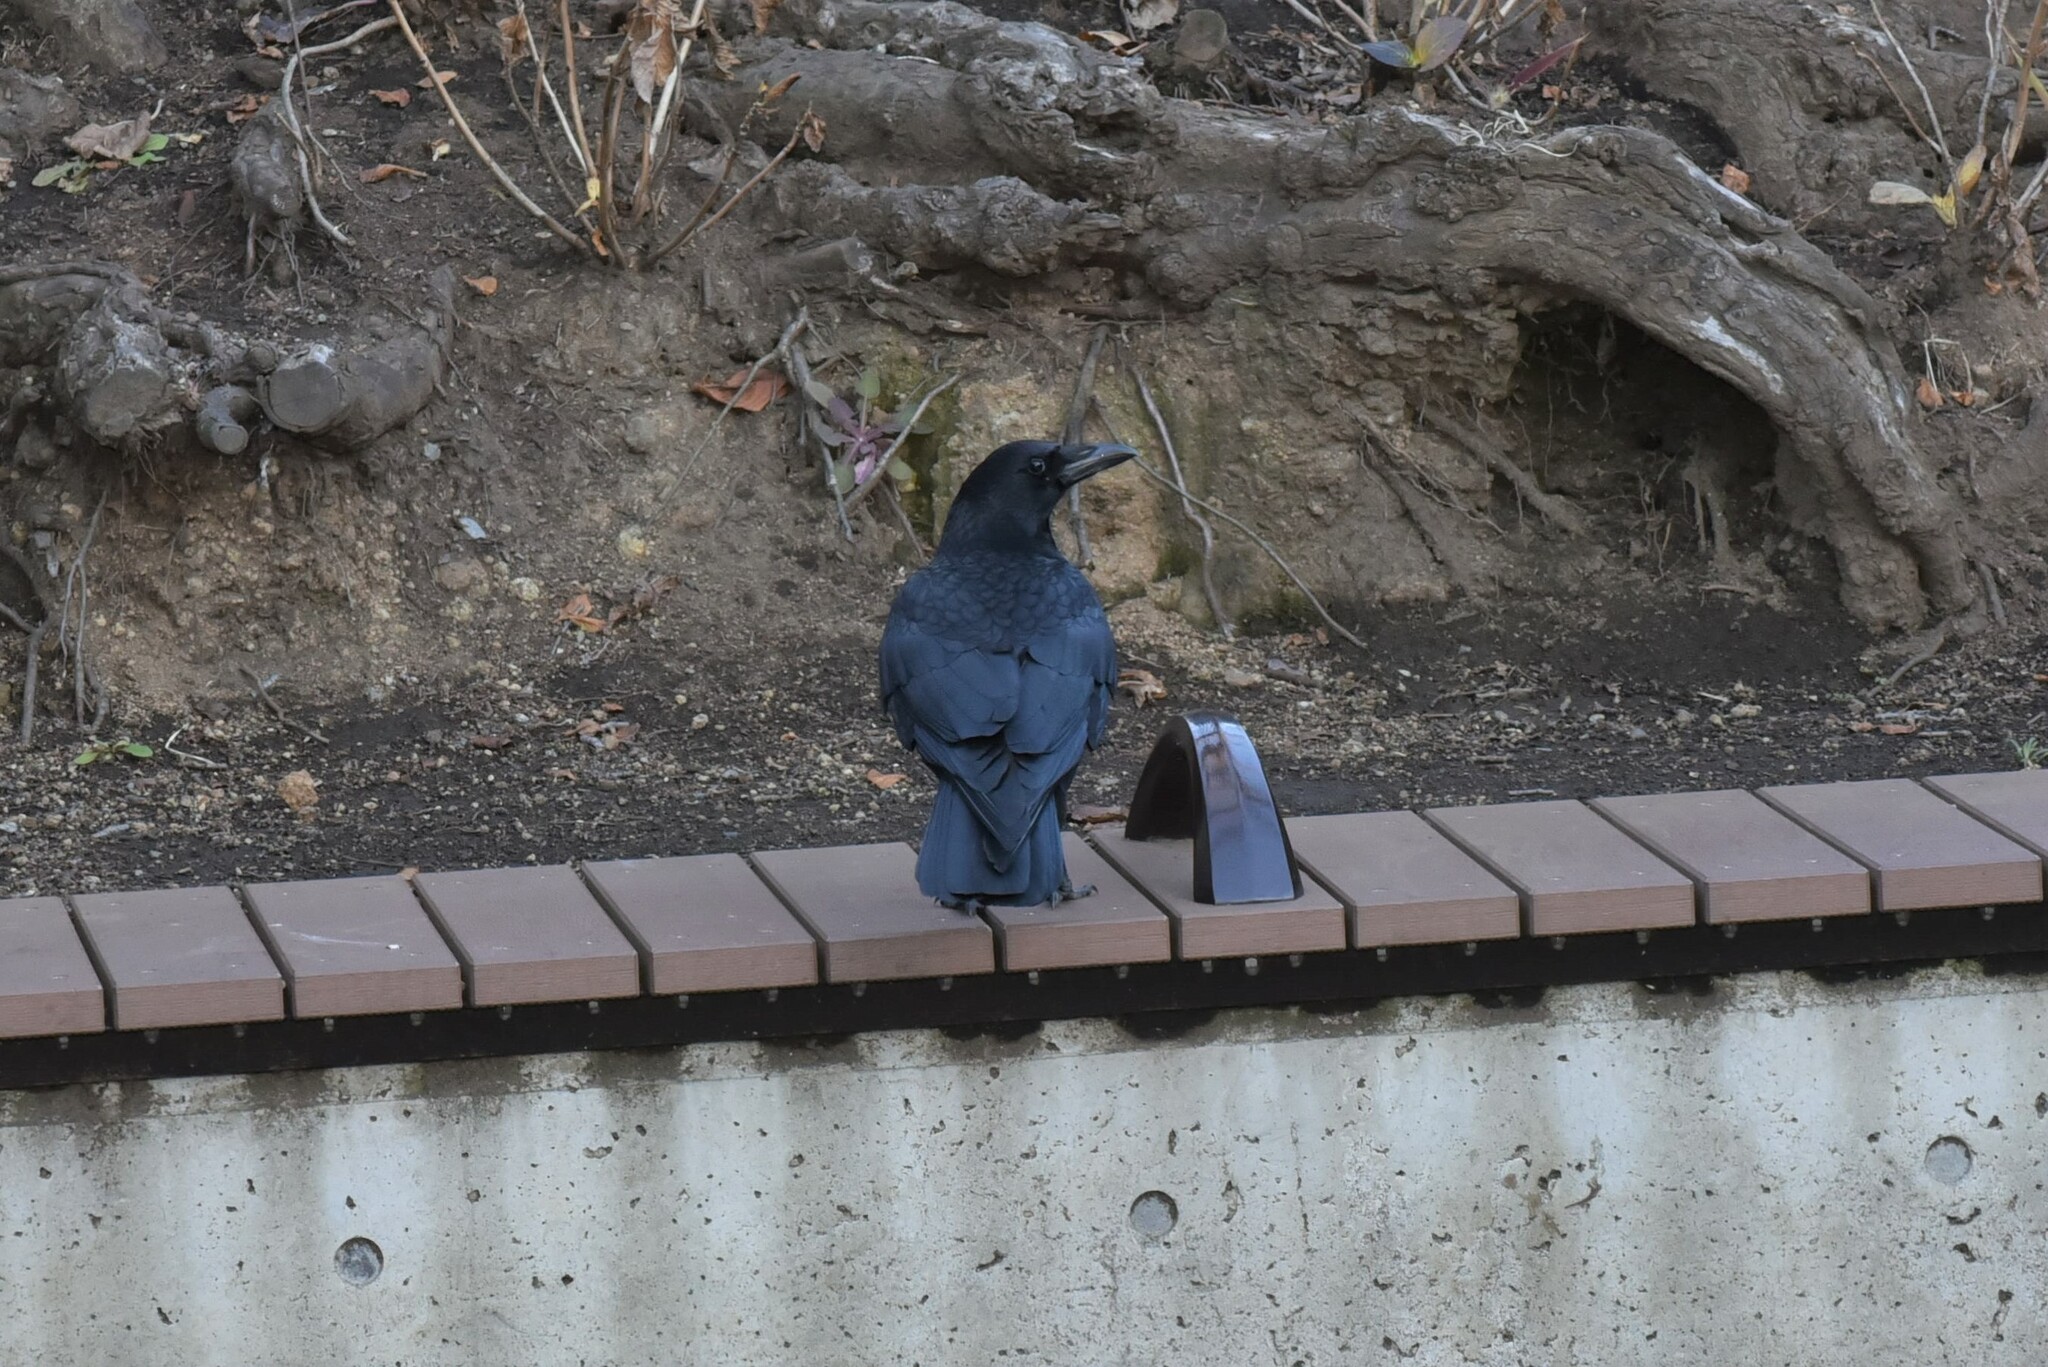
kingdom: Animalia
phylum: Chordata
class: Aves
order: Passeriformes
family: Corvidae
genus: Corvus
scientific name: Corvus corone
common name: Carrion crow
